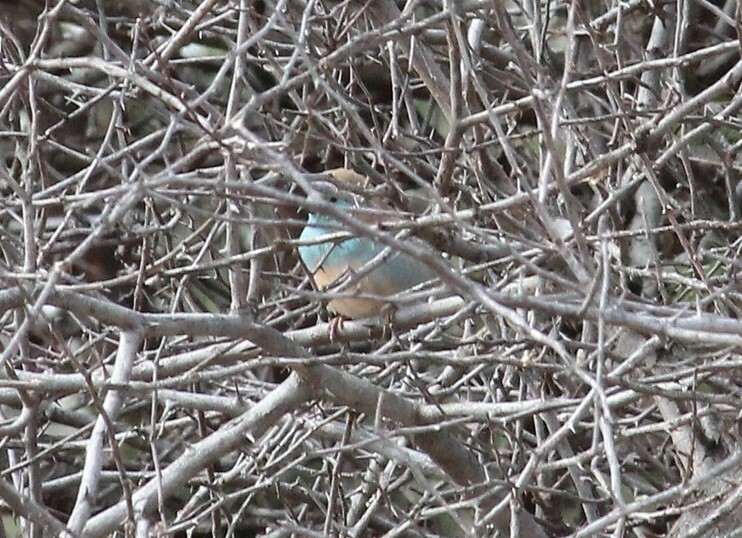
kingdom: Animalia
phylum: Chordata
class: Aves
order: Passeriformes
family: Estrildidae
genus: Uraeginthus
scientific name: Uraeginthus angolensis
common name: Blue waxbill
